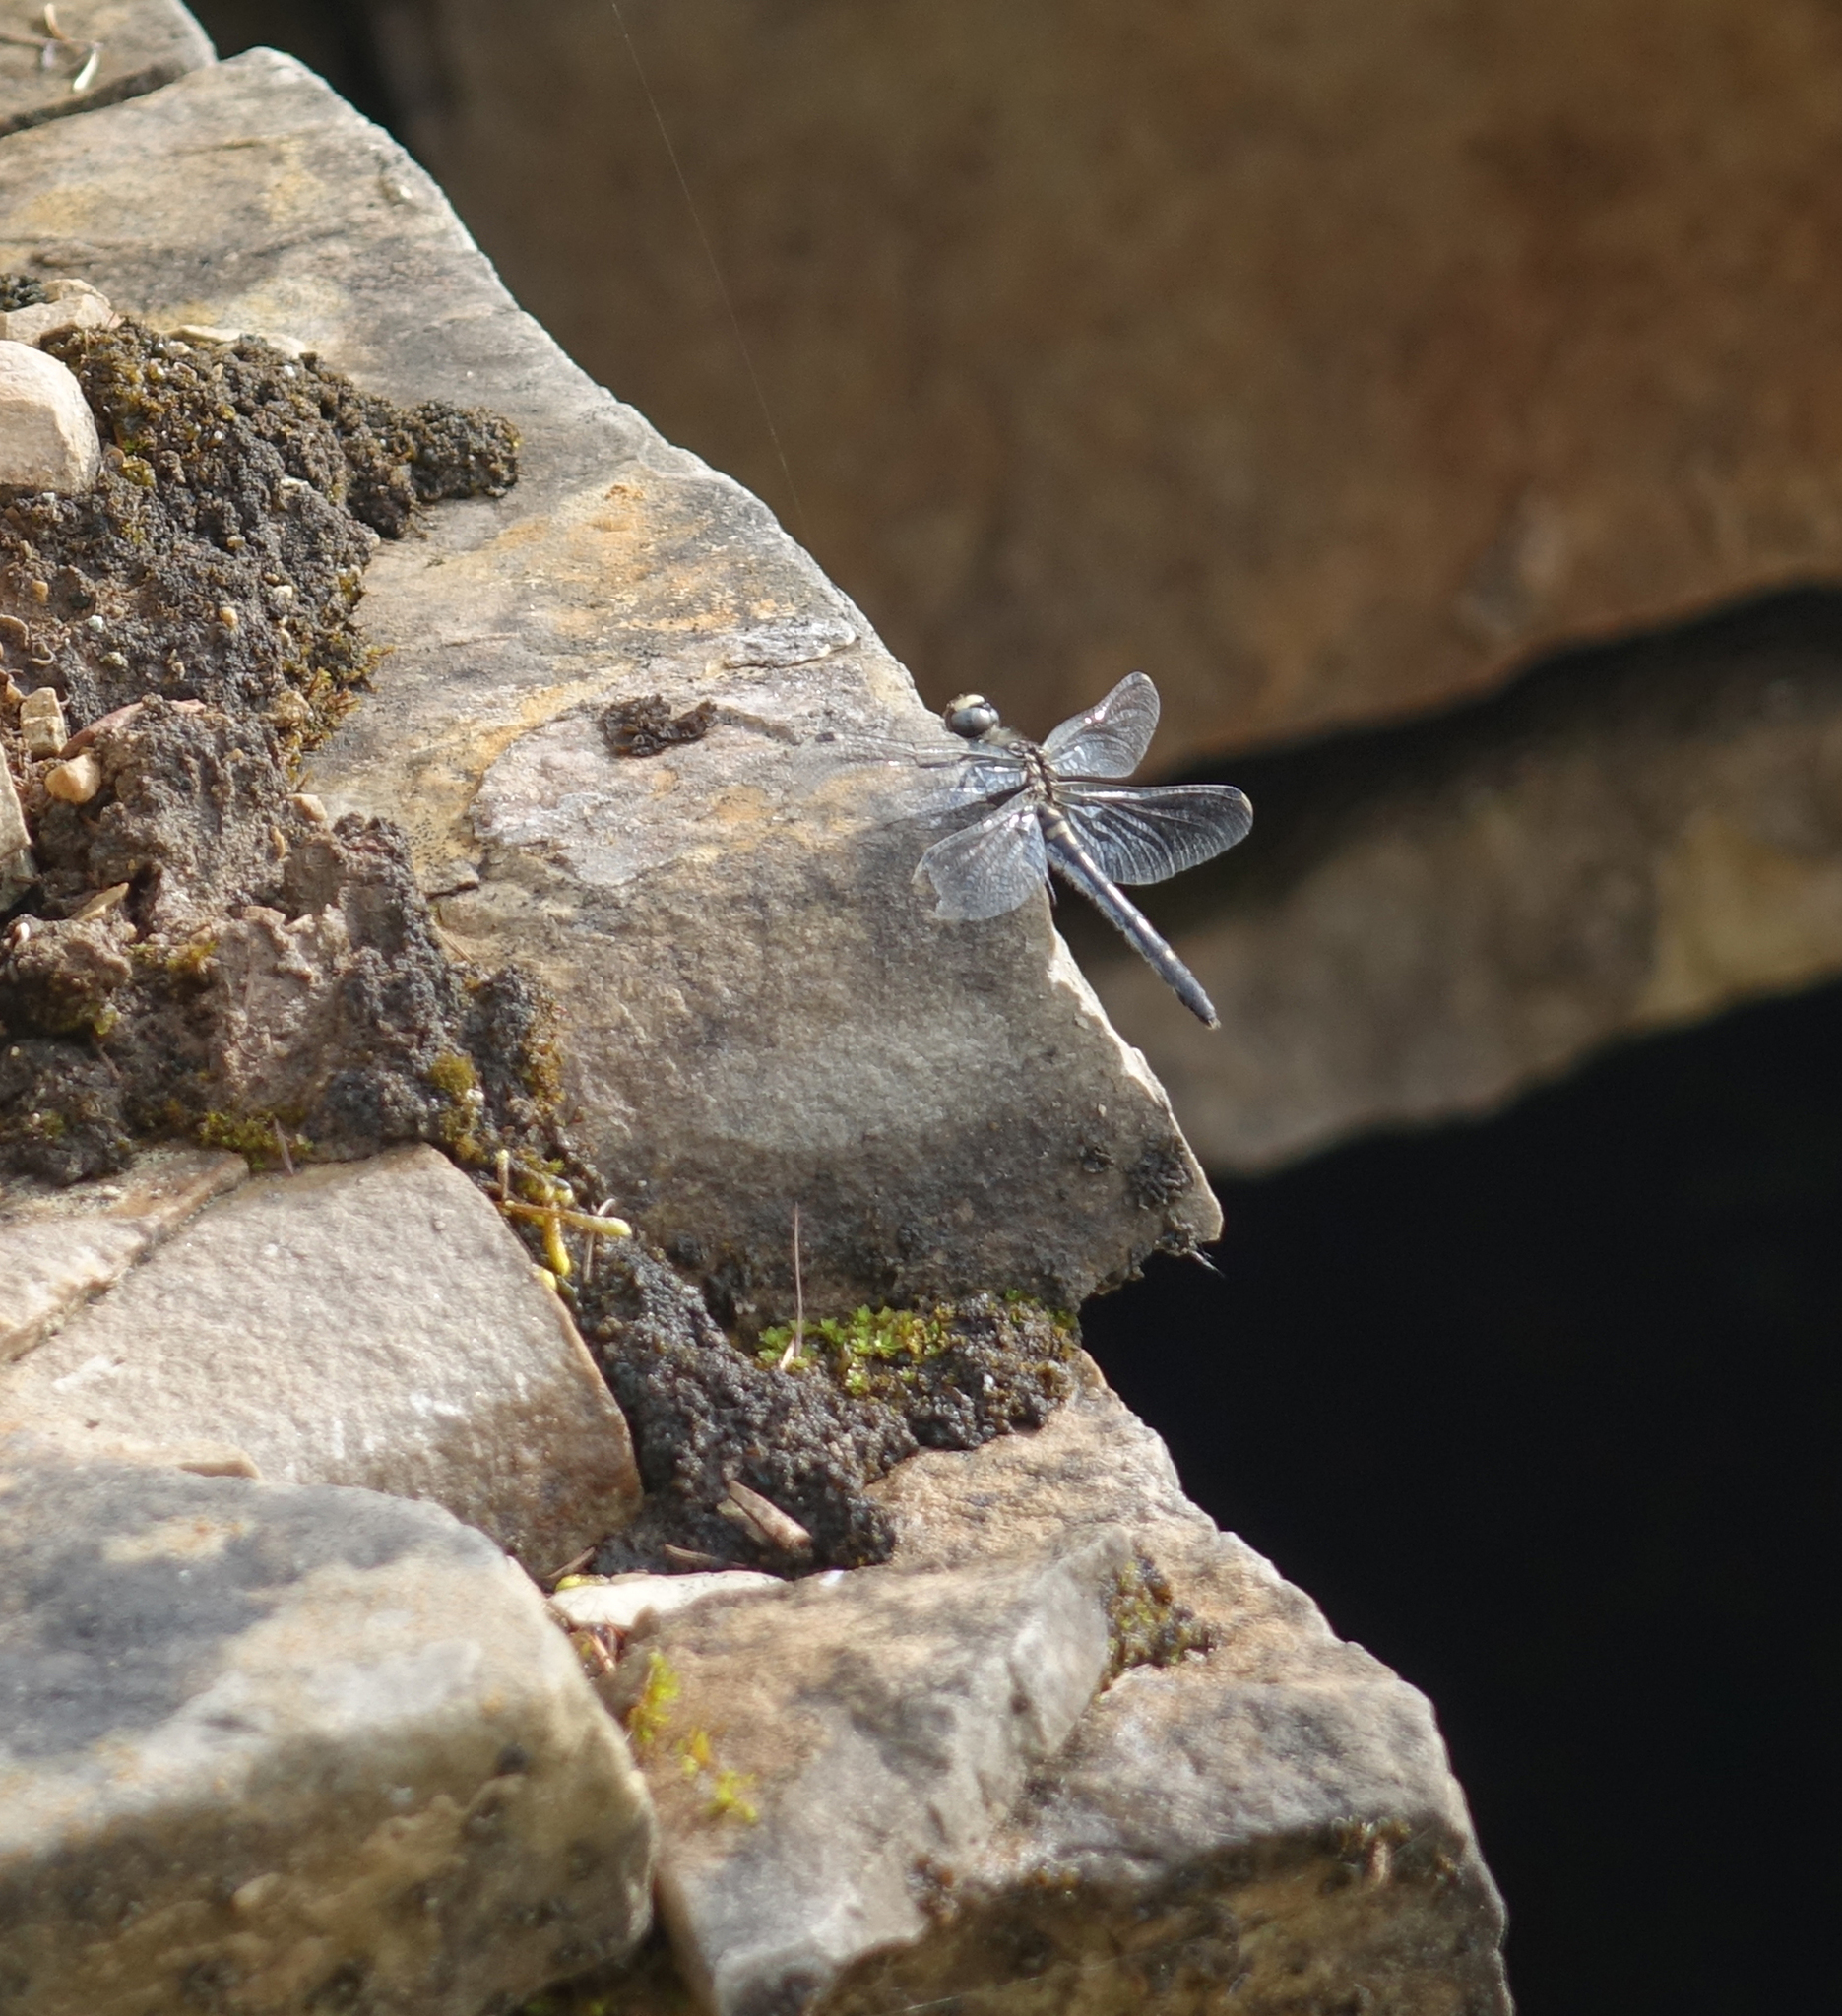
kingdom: Animalia
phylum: Arthropoda
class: Insecta
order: Odonata
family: Libellulidae
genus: Leucorrhinia
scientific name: Leucorrhinia orientalis
